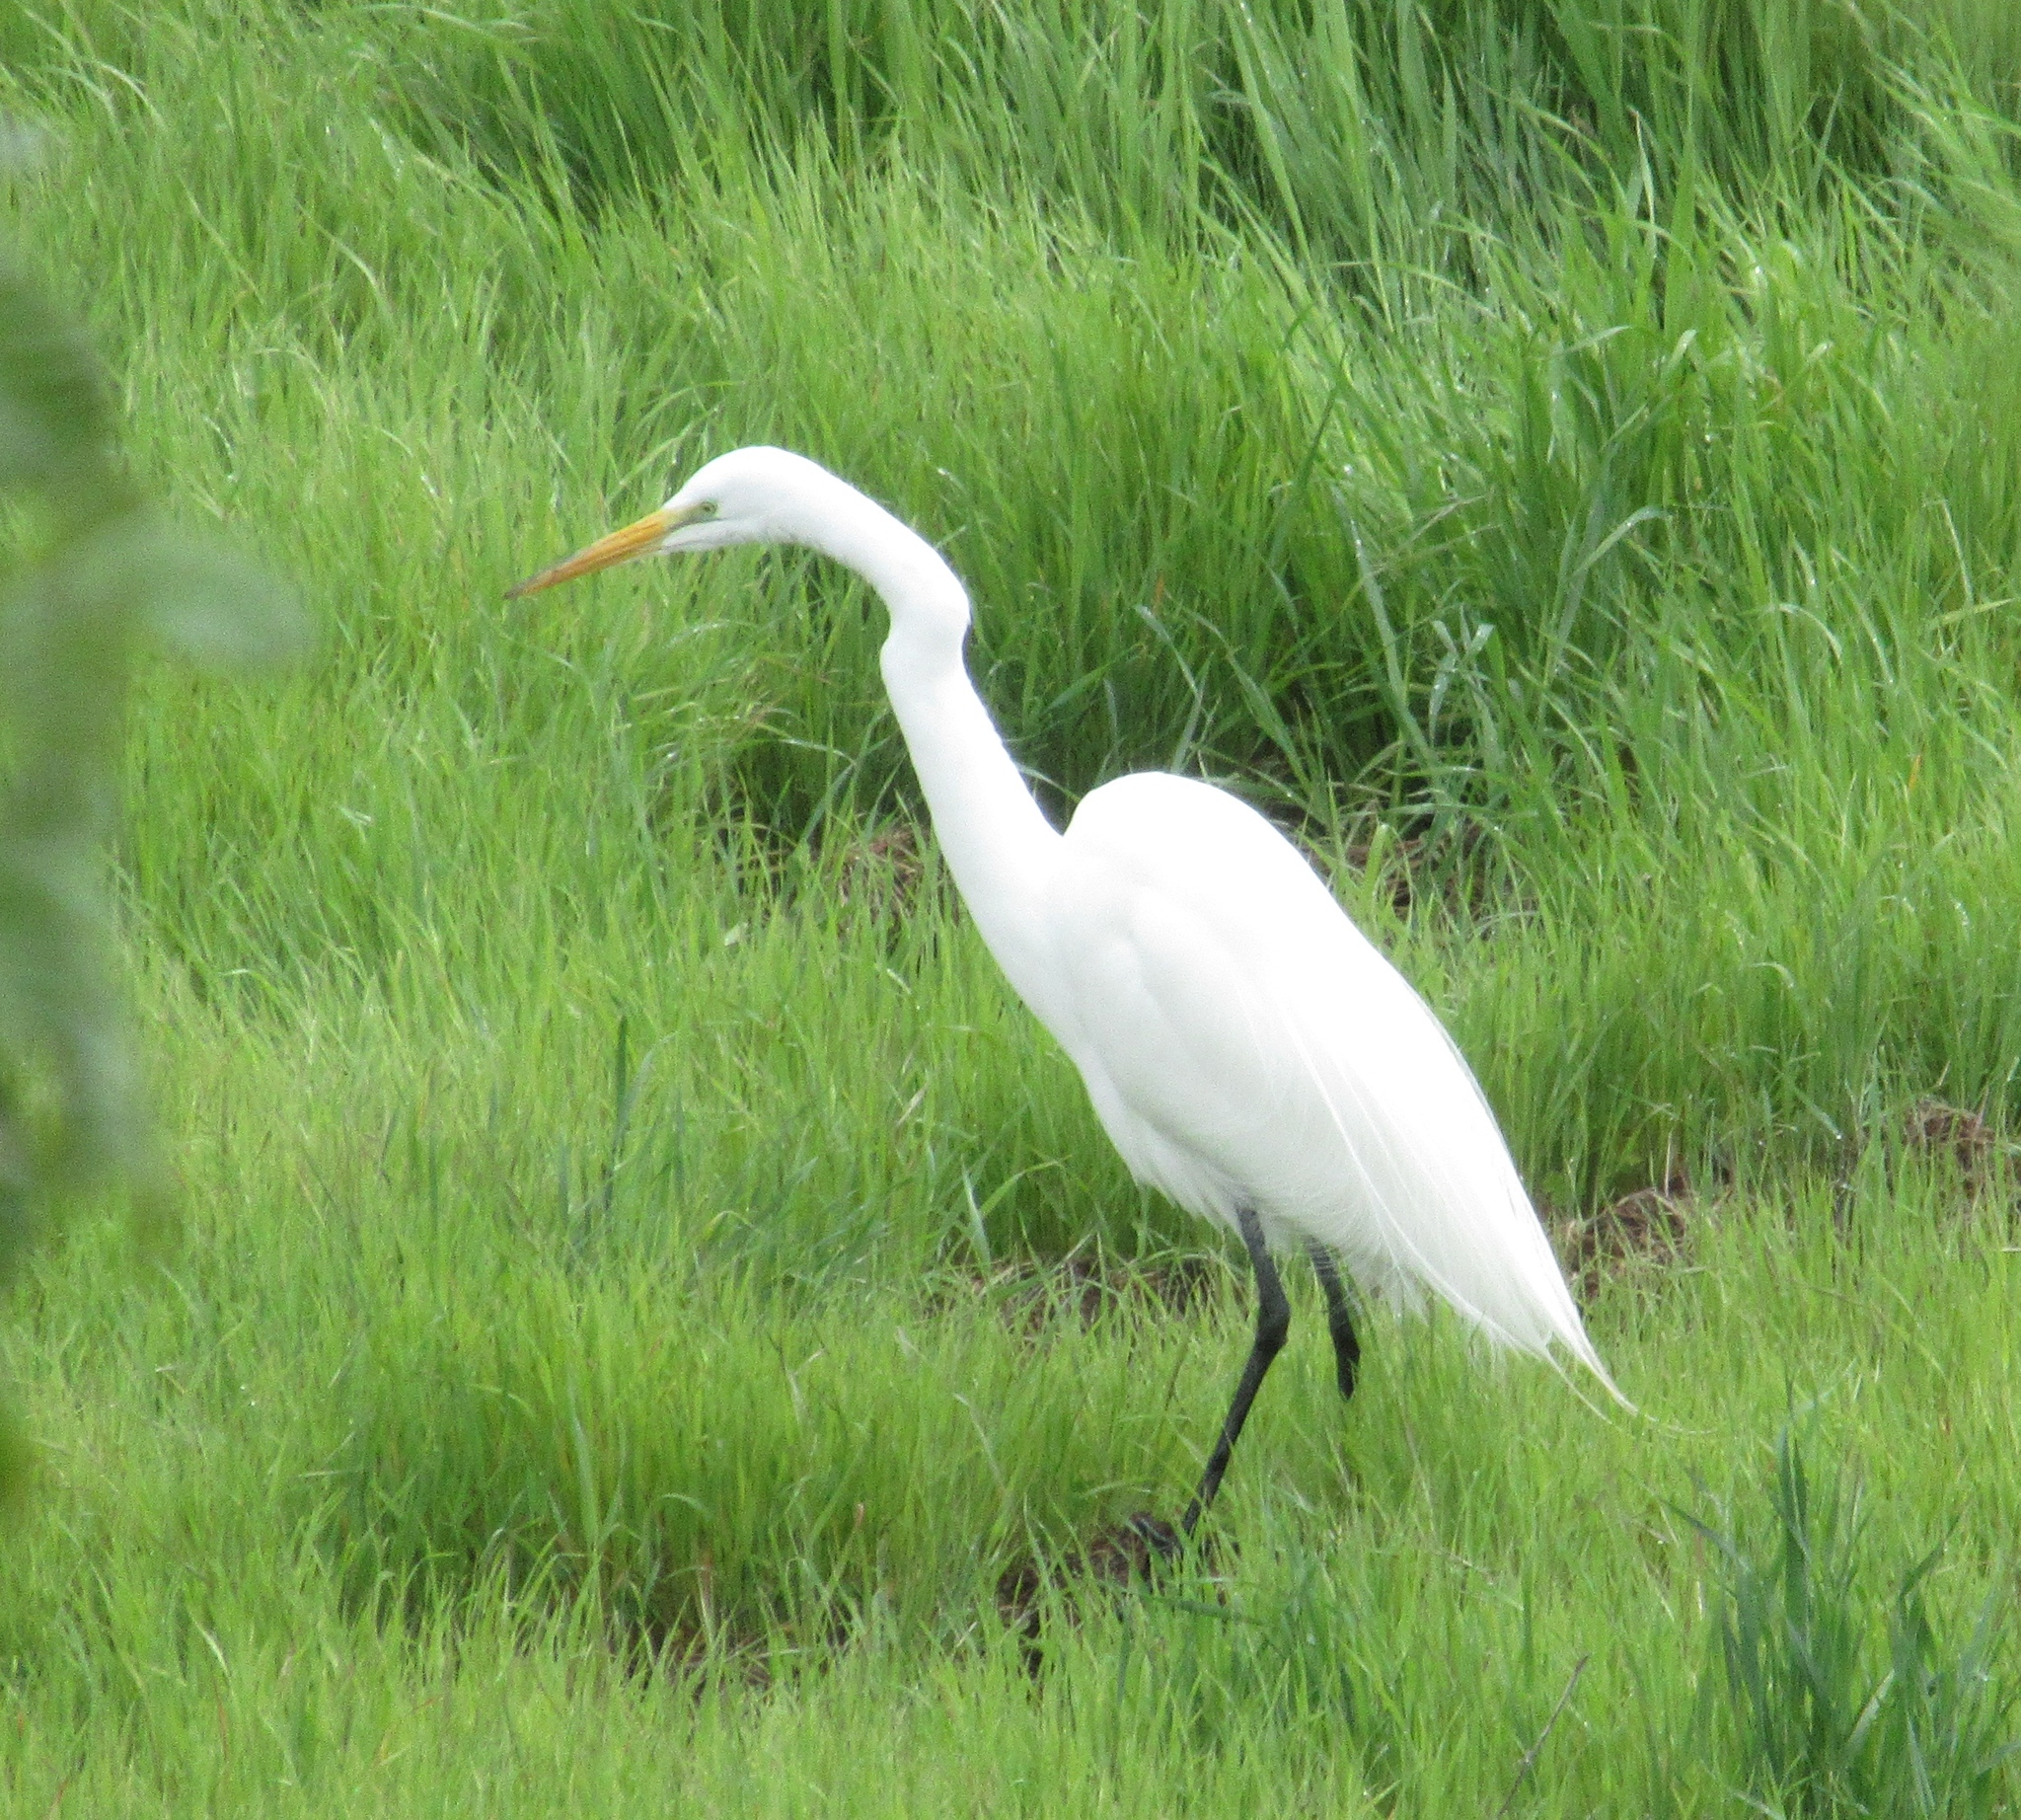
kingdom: Animalia
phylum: Chordata
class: Aves
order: Pelecaniformes
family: Ardeidae
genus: Ardea
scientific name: Ardea alba
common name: Great egret
